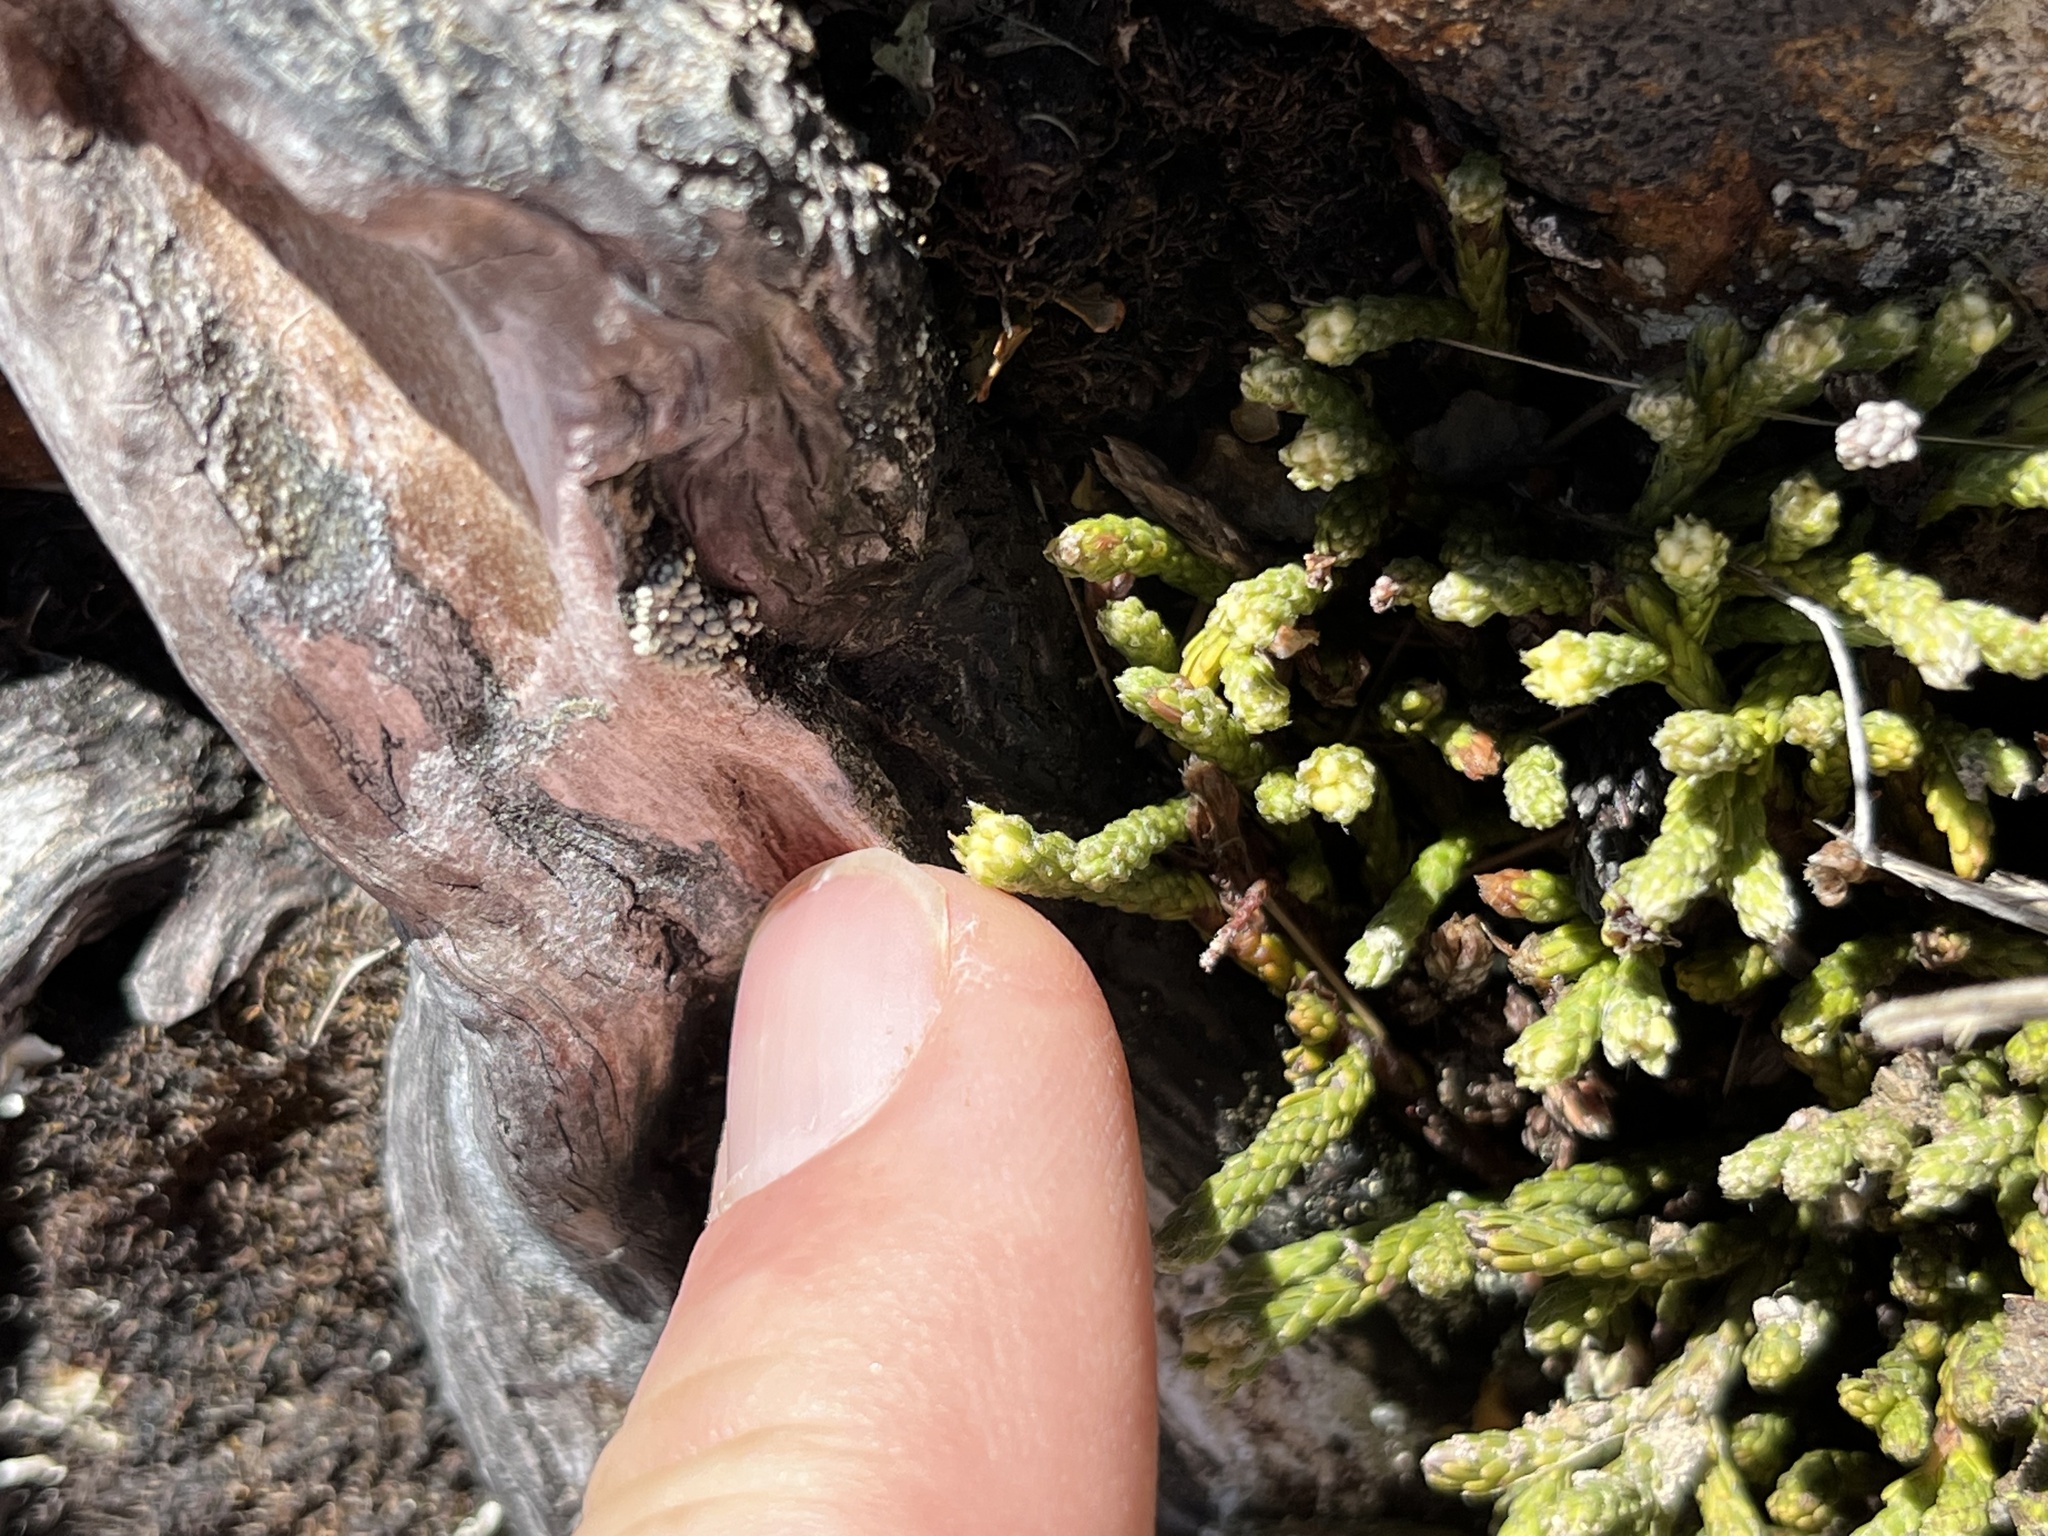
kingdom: Plantae
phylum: Tracheophyta
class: Magnoliopsida
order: Malvales
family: Thymelaeaceae
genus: Kelleria
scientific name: Kelleria dieffenbachii
